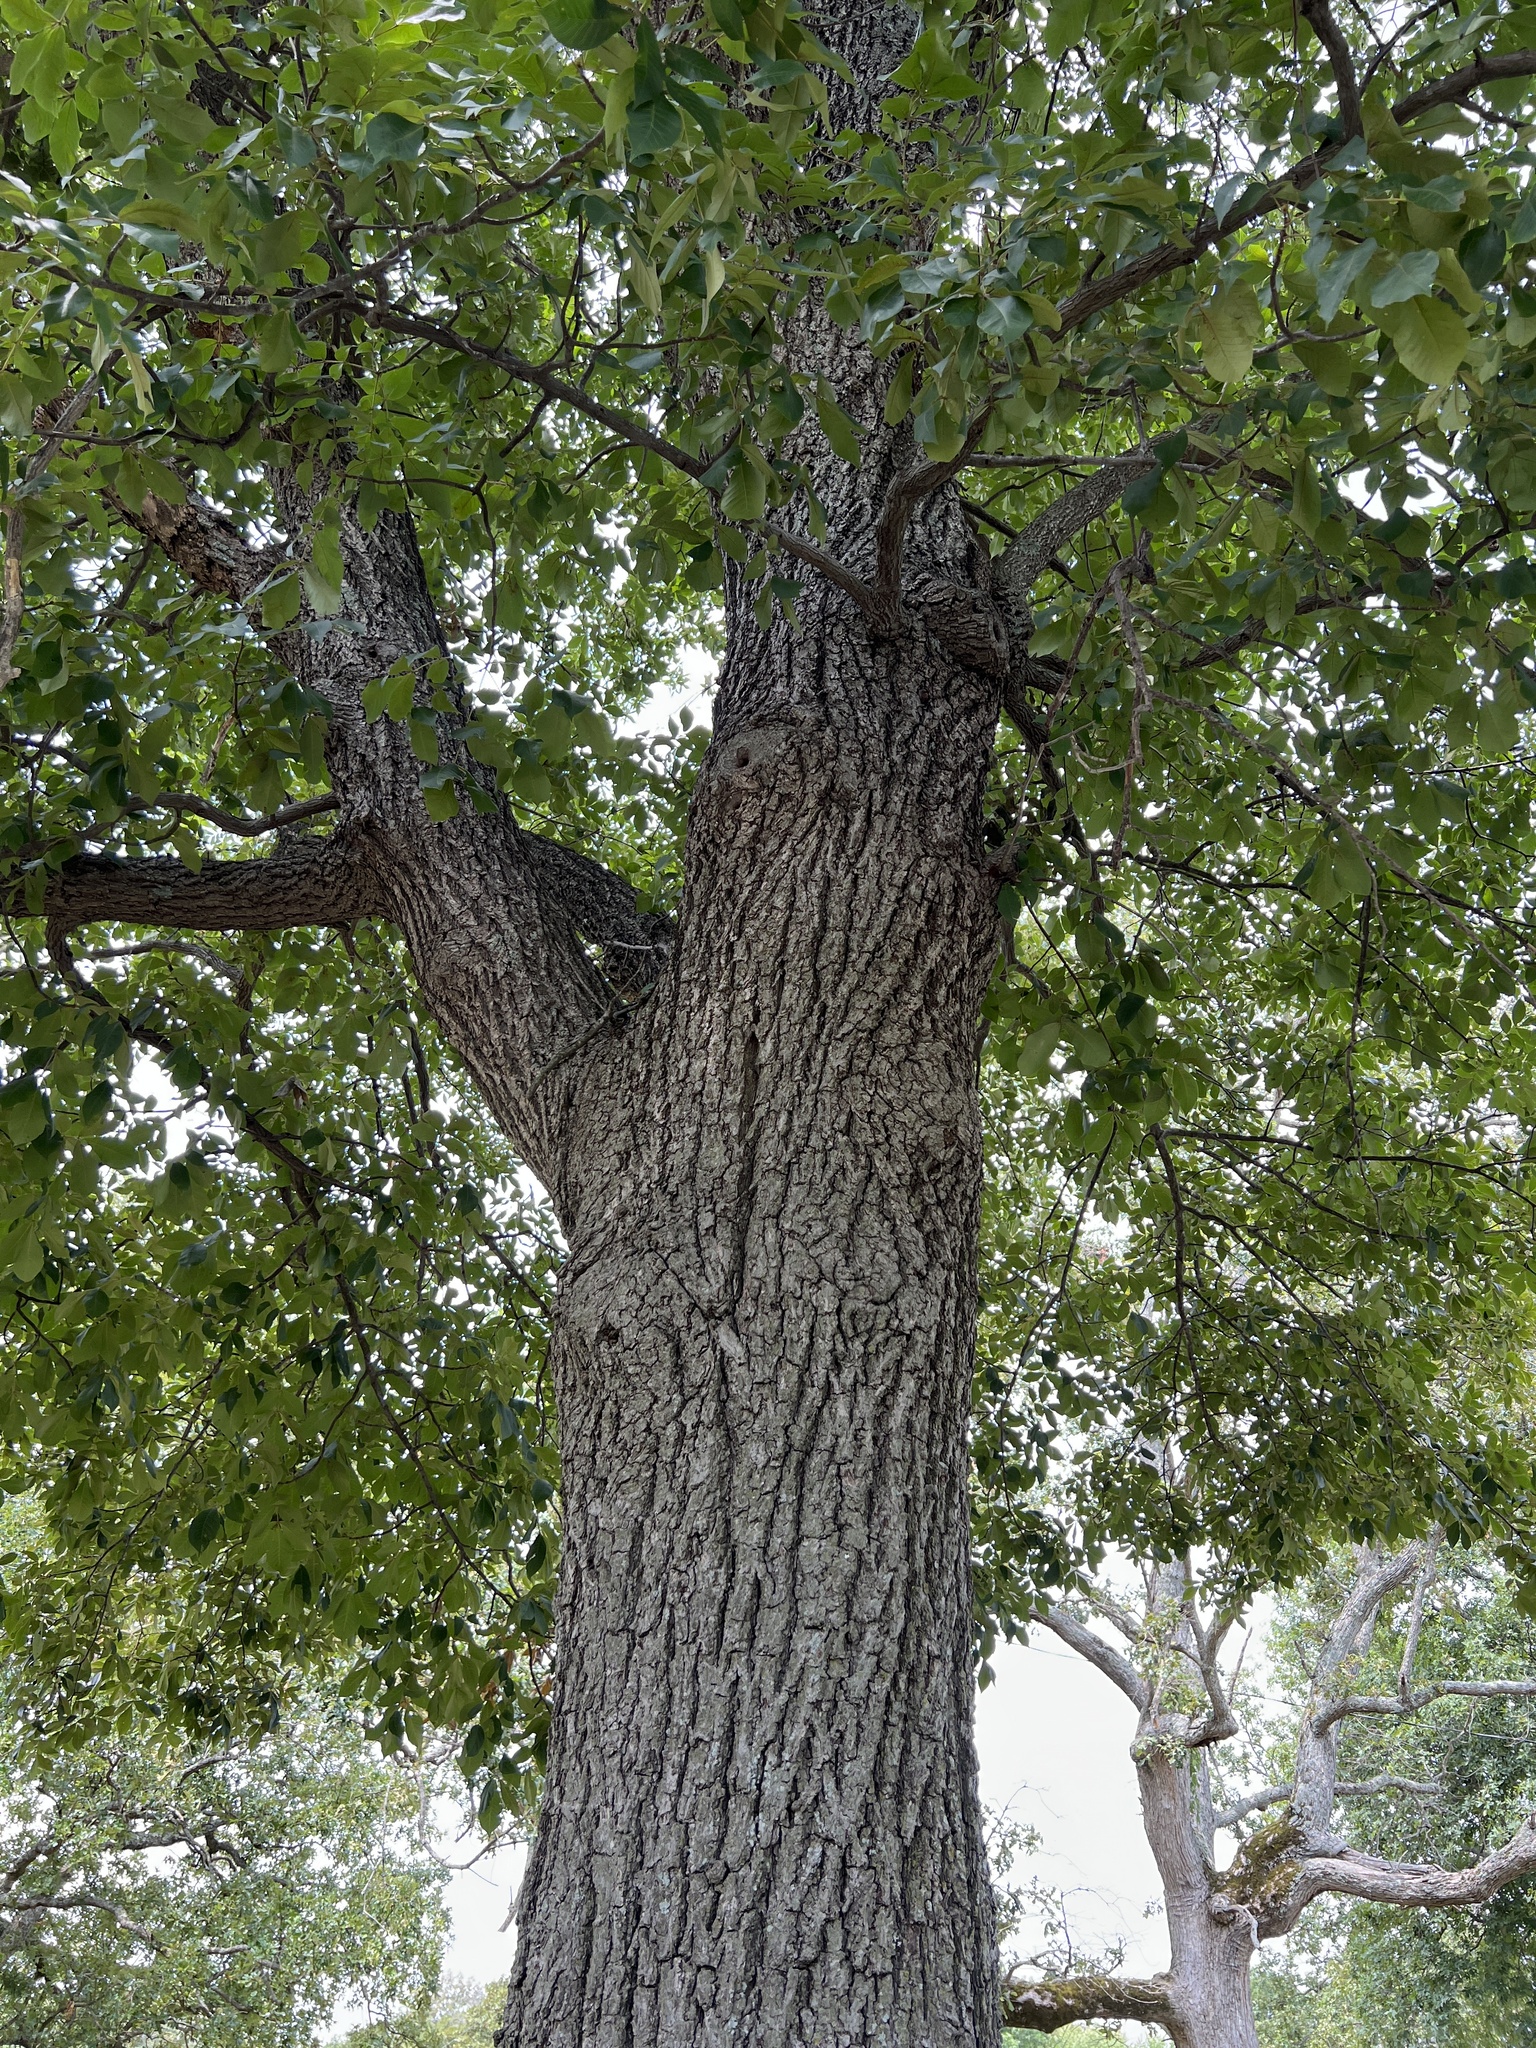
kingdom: Plantae
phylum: Tracheophyta
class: Magnoliopsida
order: Fagales
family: Juglandaceae
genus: Carya
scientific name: Carya pallida
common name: Sand hickory
